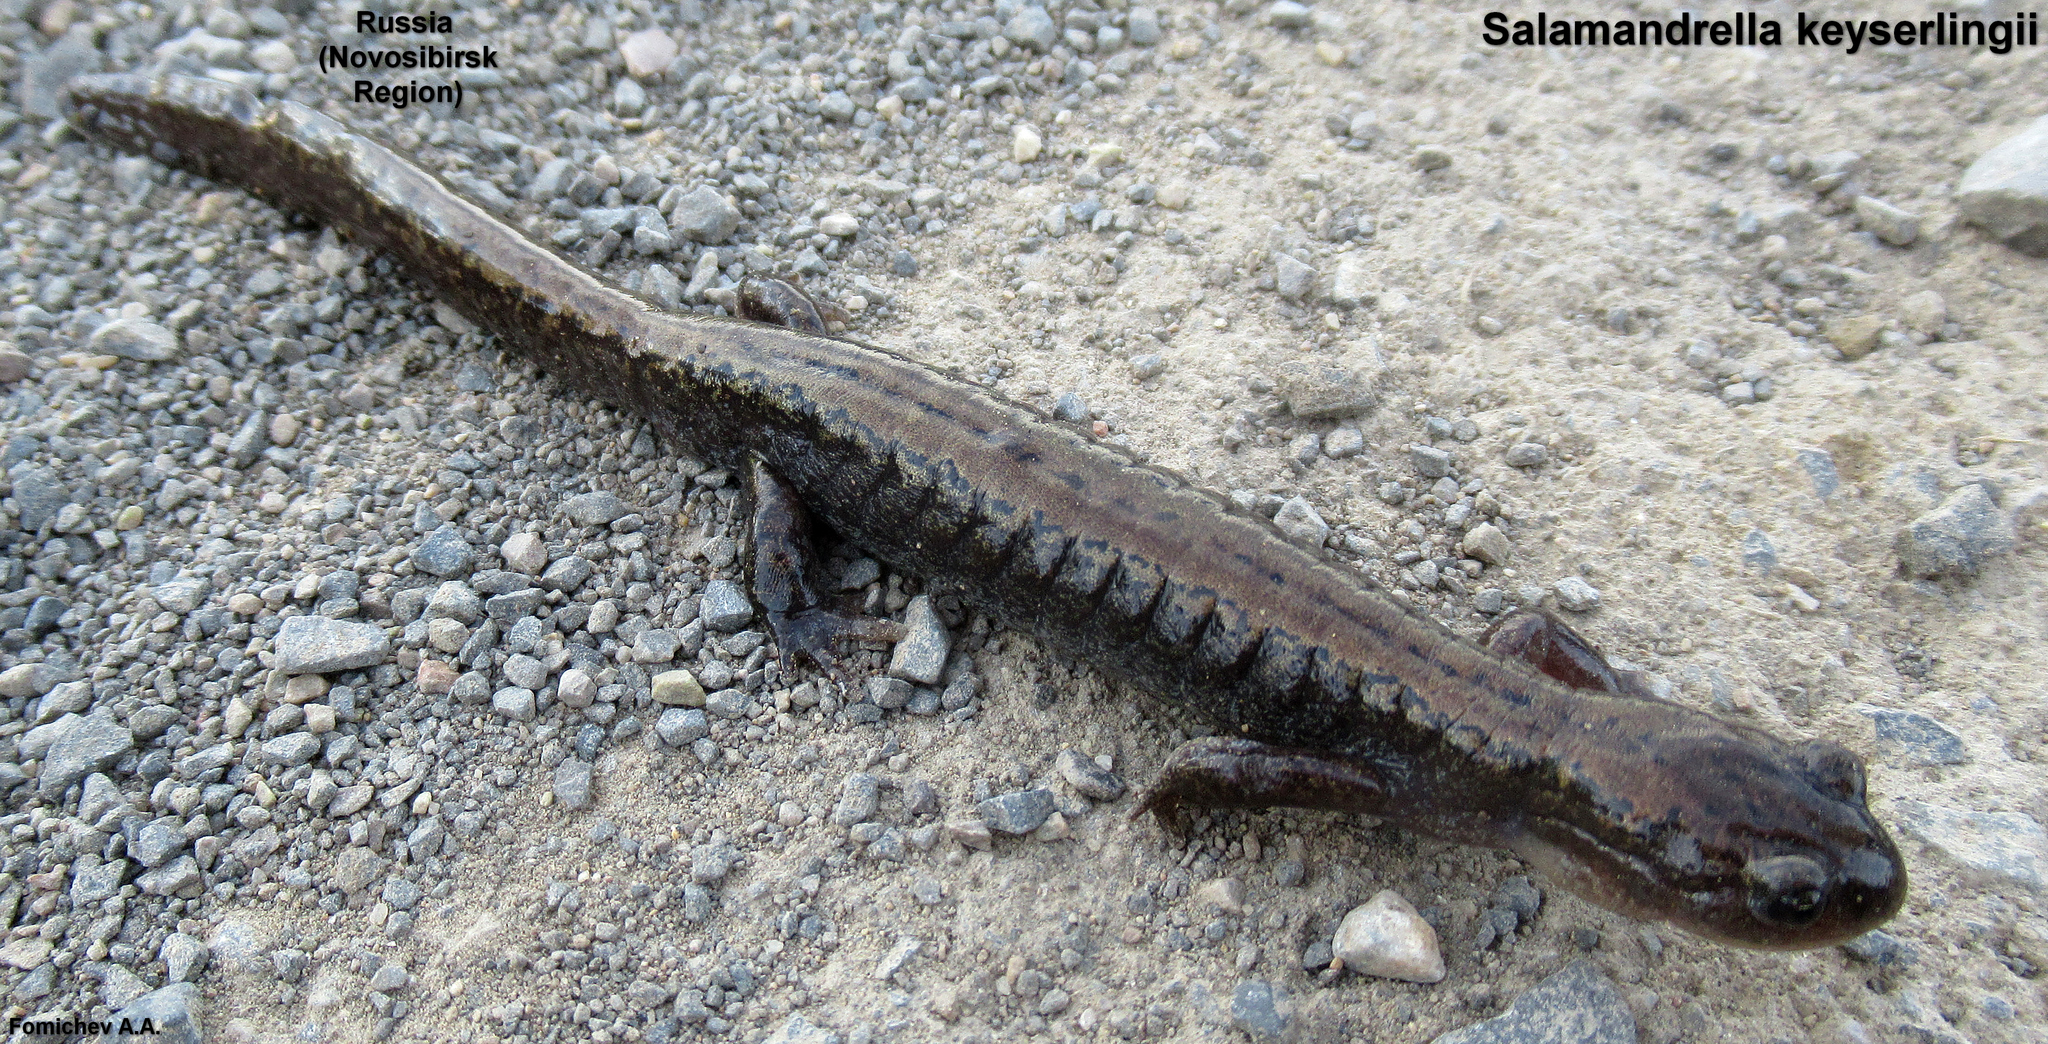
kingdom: Animalia
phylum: Chordata
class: Amphibia
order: Caudata
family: Hynobiidae
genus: Salamandrella
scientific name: Salamandrella keyserlingii
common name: Dybowski's salamander
